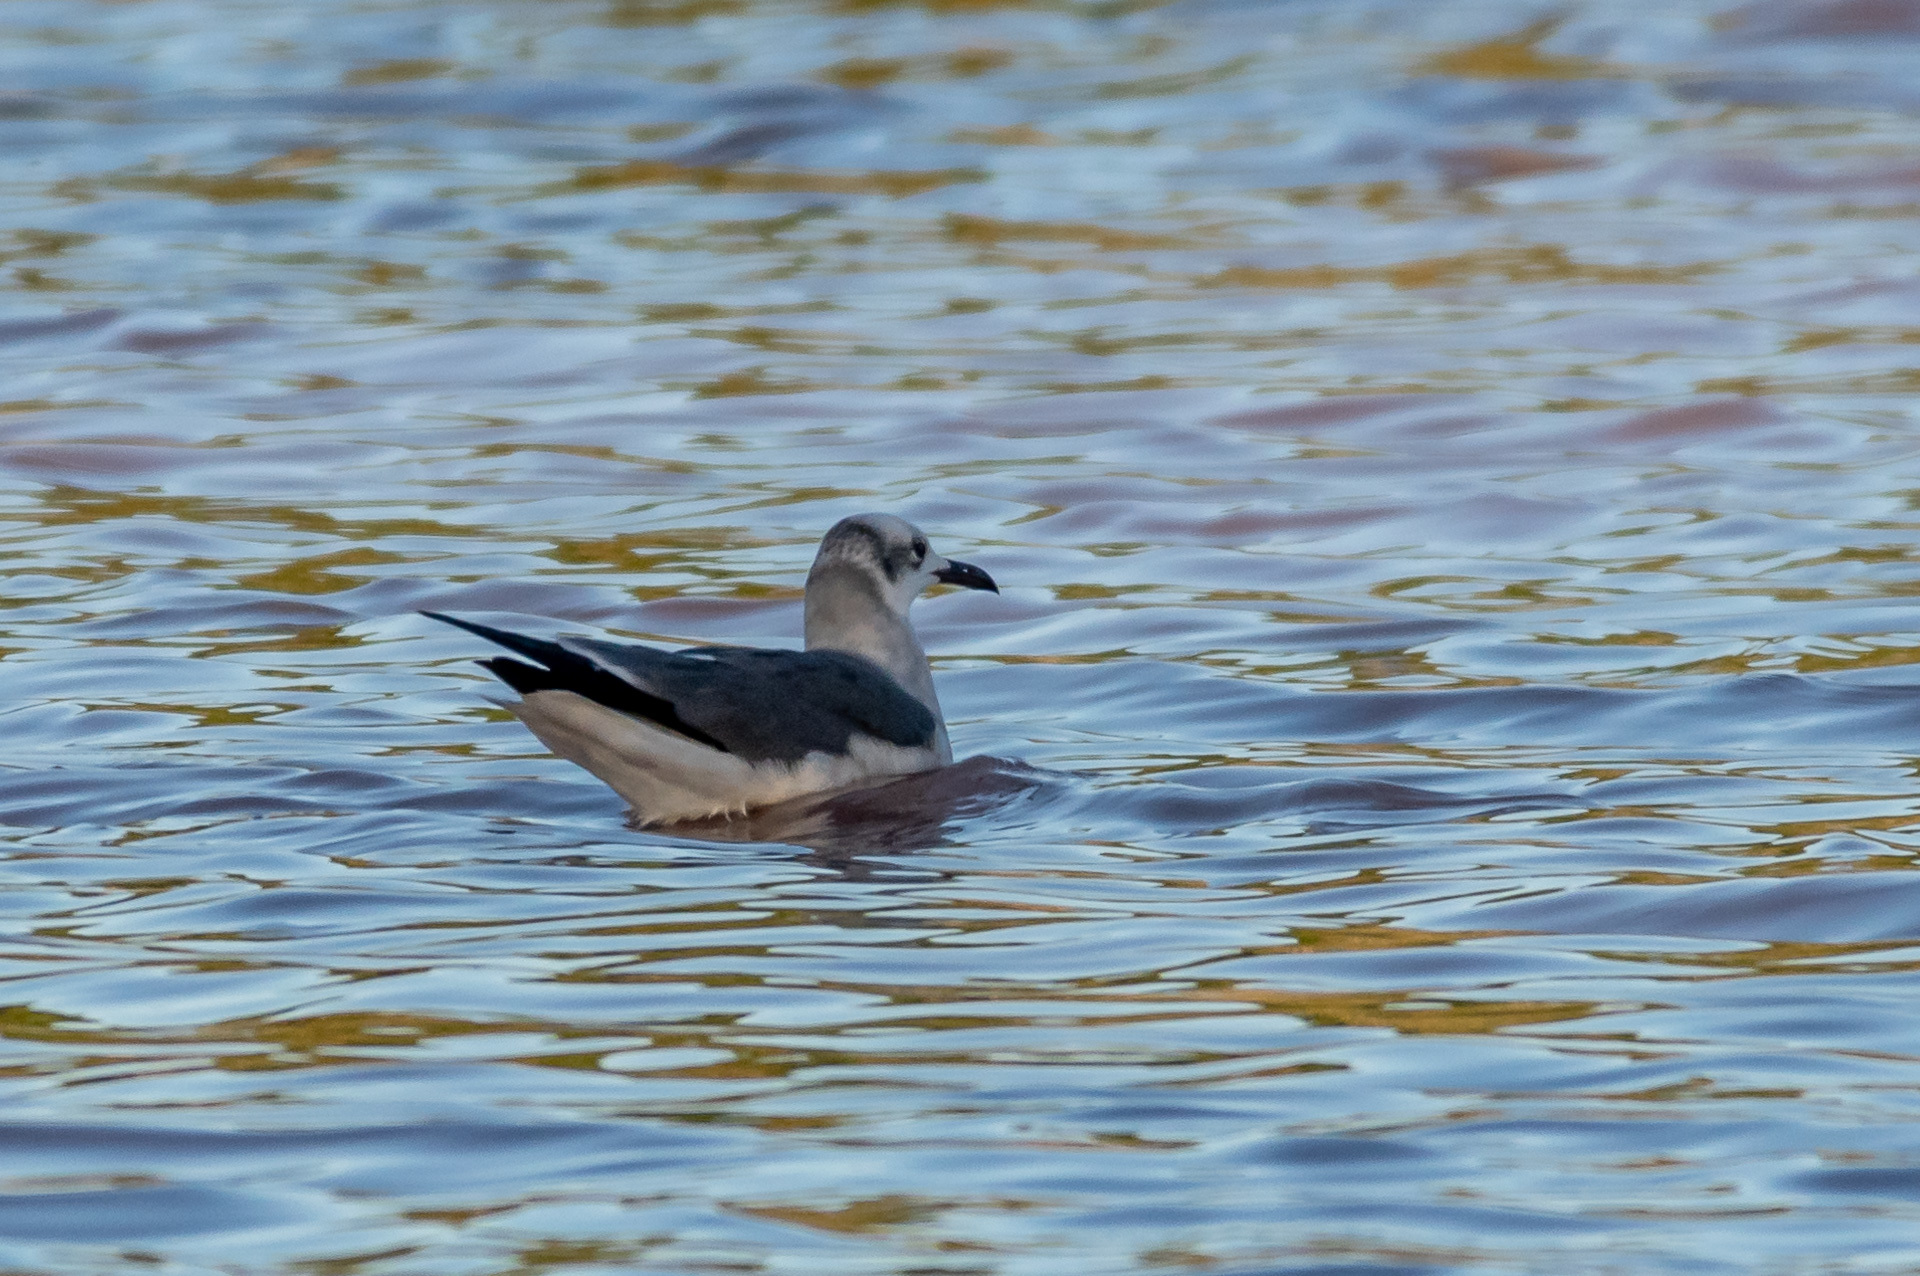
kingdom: Animalia
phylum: Chordata
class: Aves
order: Charadriiformes
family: Laridae
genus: Leucophaeus
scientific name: Leucophaeus atricilla
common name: Laughing gull
